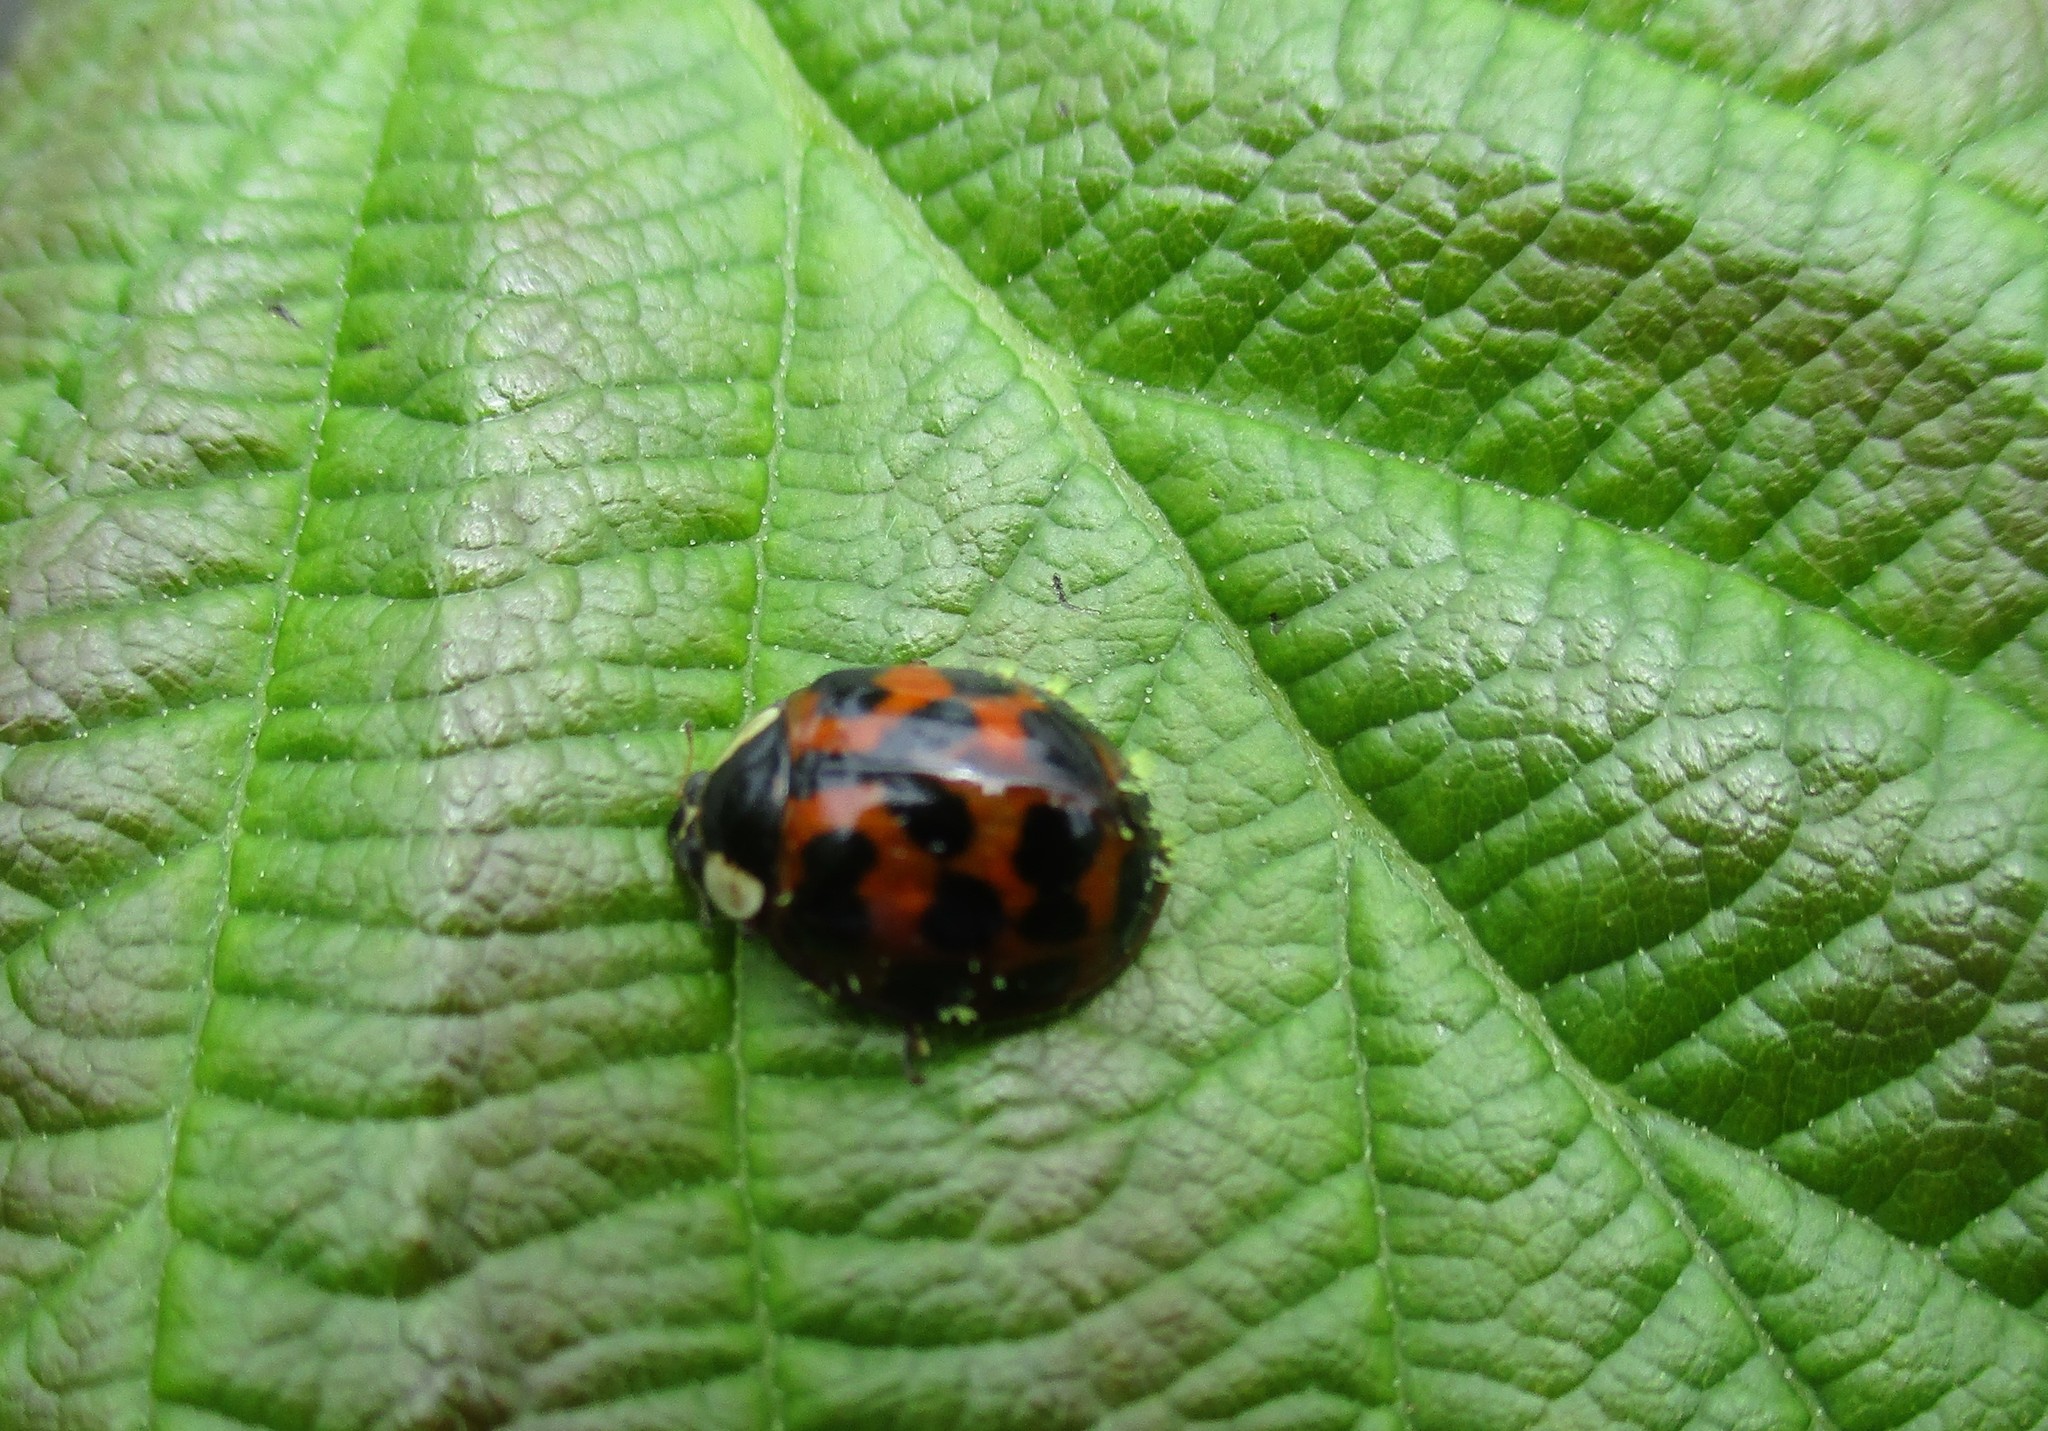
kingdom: Animalia
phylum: Arthropoda
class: Insecta
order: Coleoptera
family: Coccinellidae
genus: Harmonia
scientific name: Harmonia axyridis
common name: Harlequin ladybird
